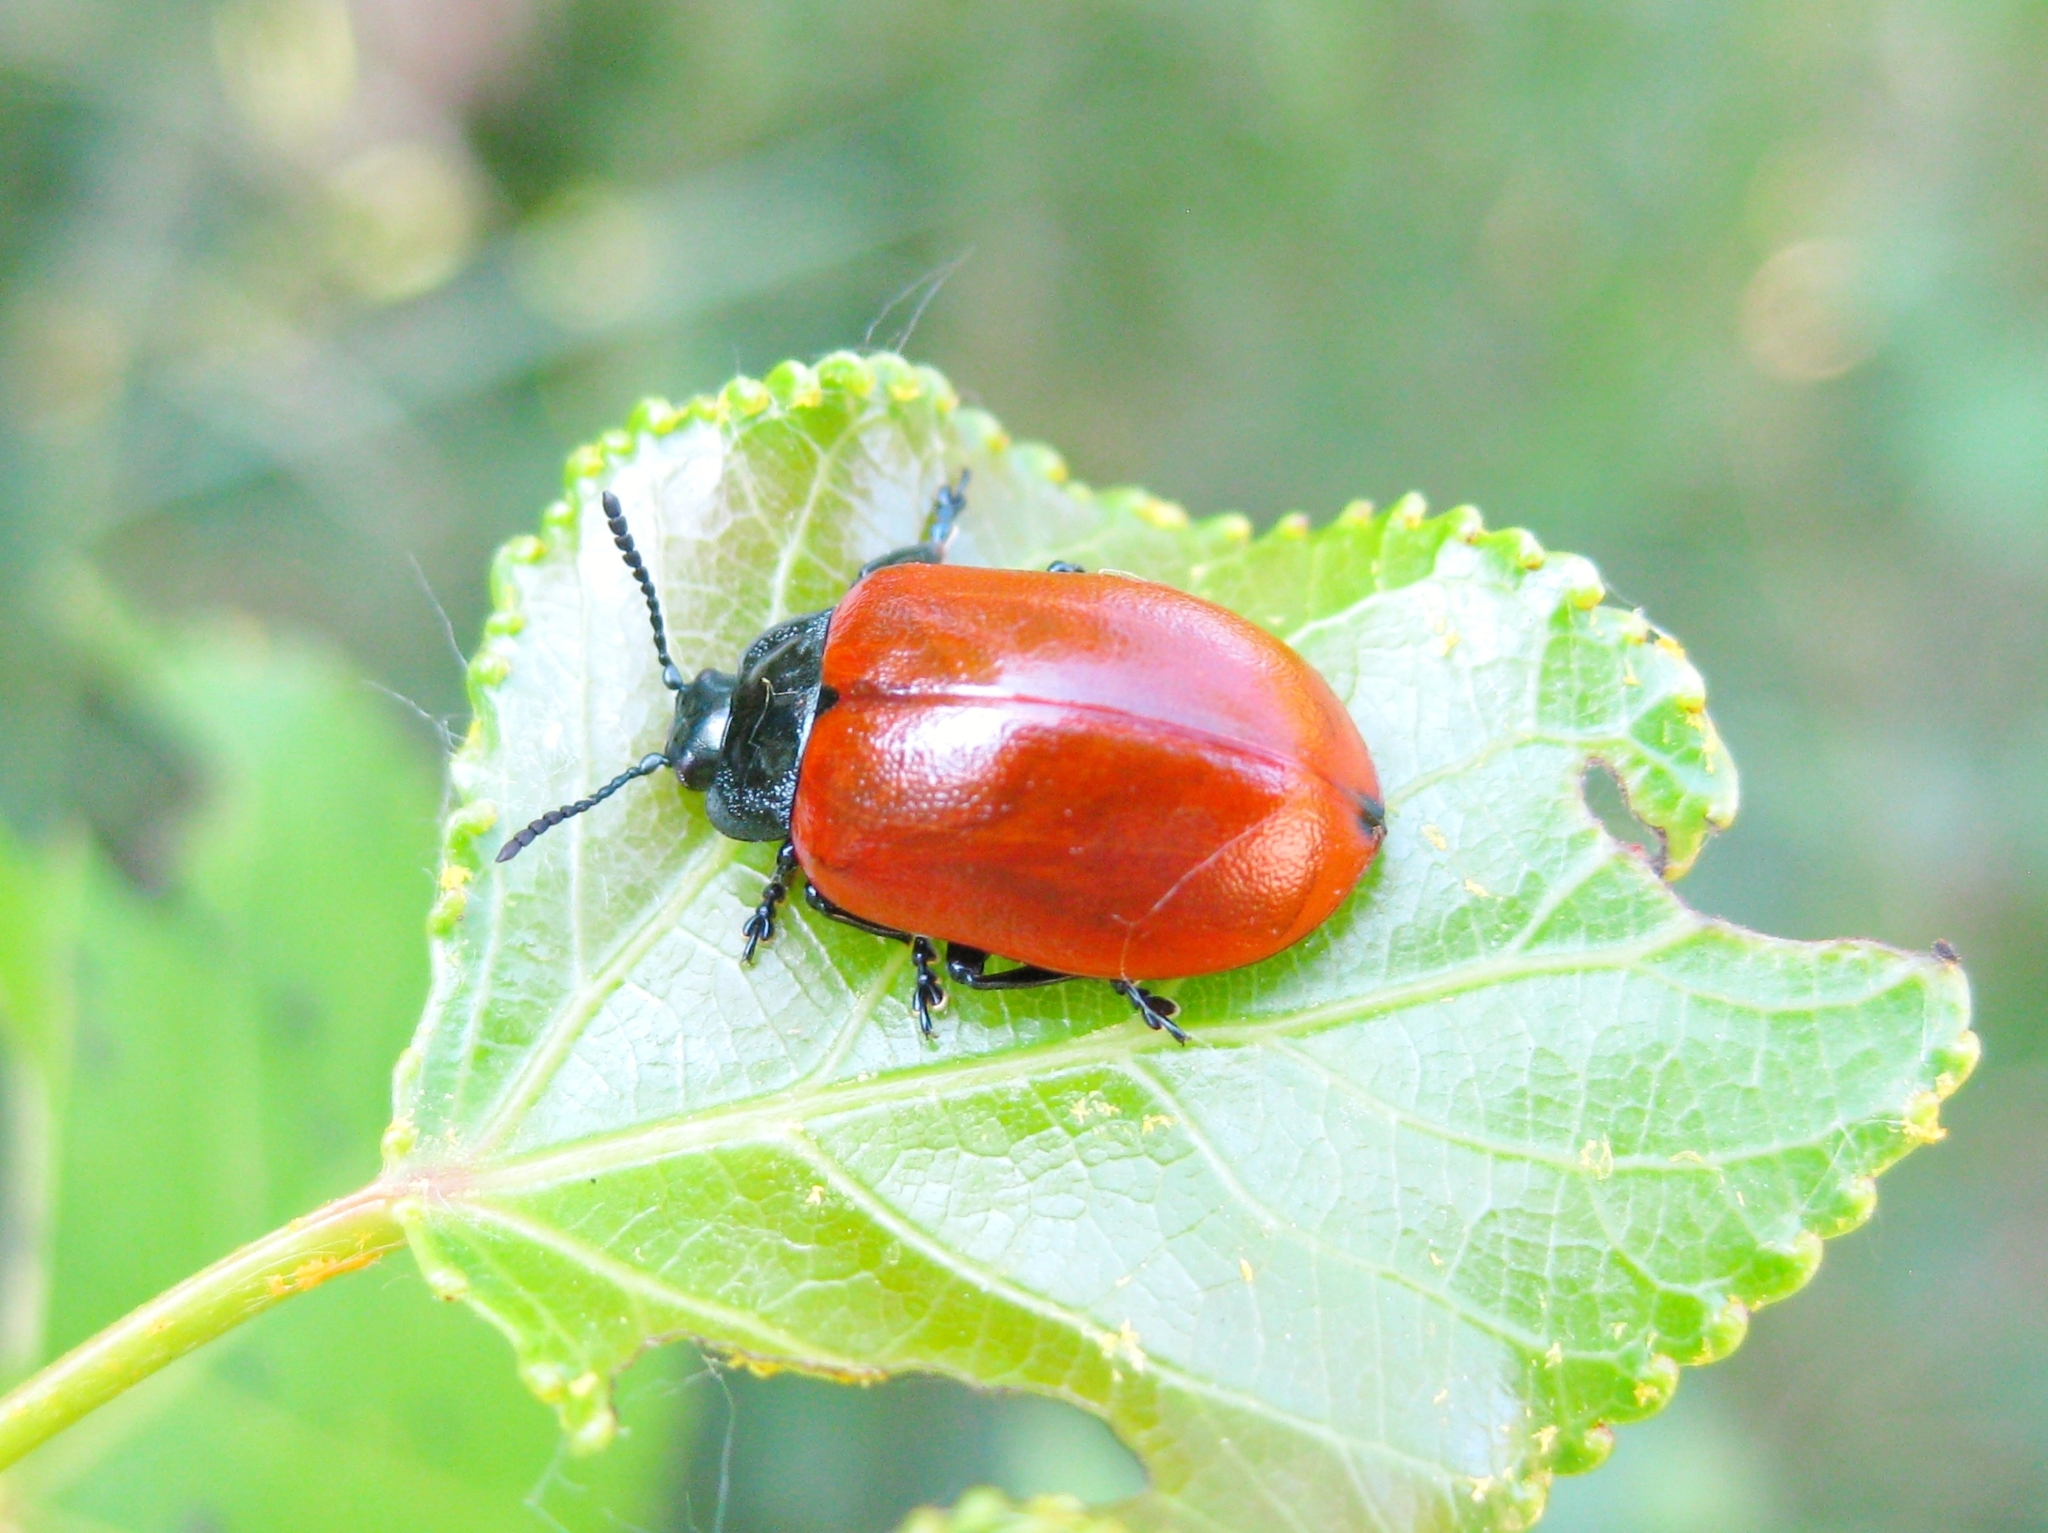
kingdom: Animalia
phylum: Arthropoda
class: Insecta
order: Coleoptera
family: Chrysomelidae
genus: Chrysomela
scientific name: Chrysomela populi
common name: Red poplar leaf beetle
